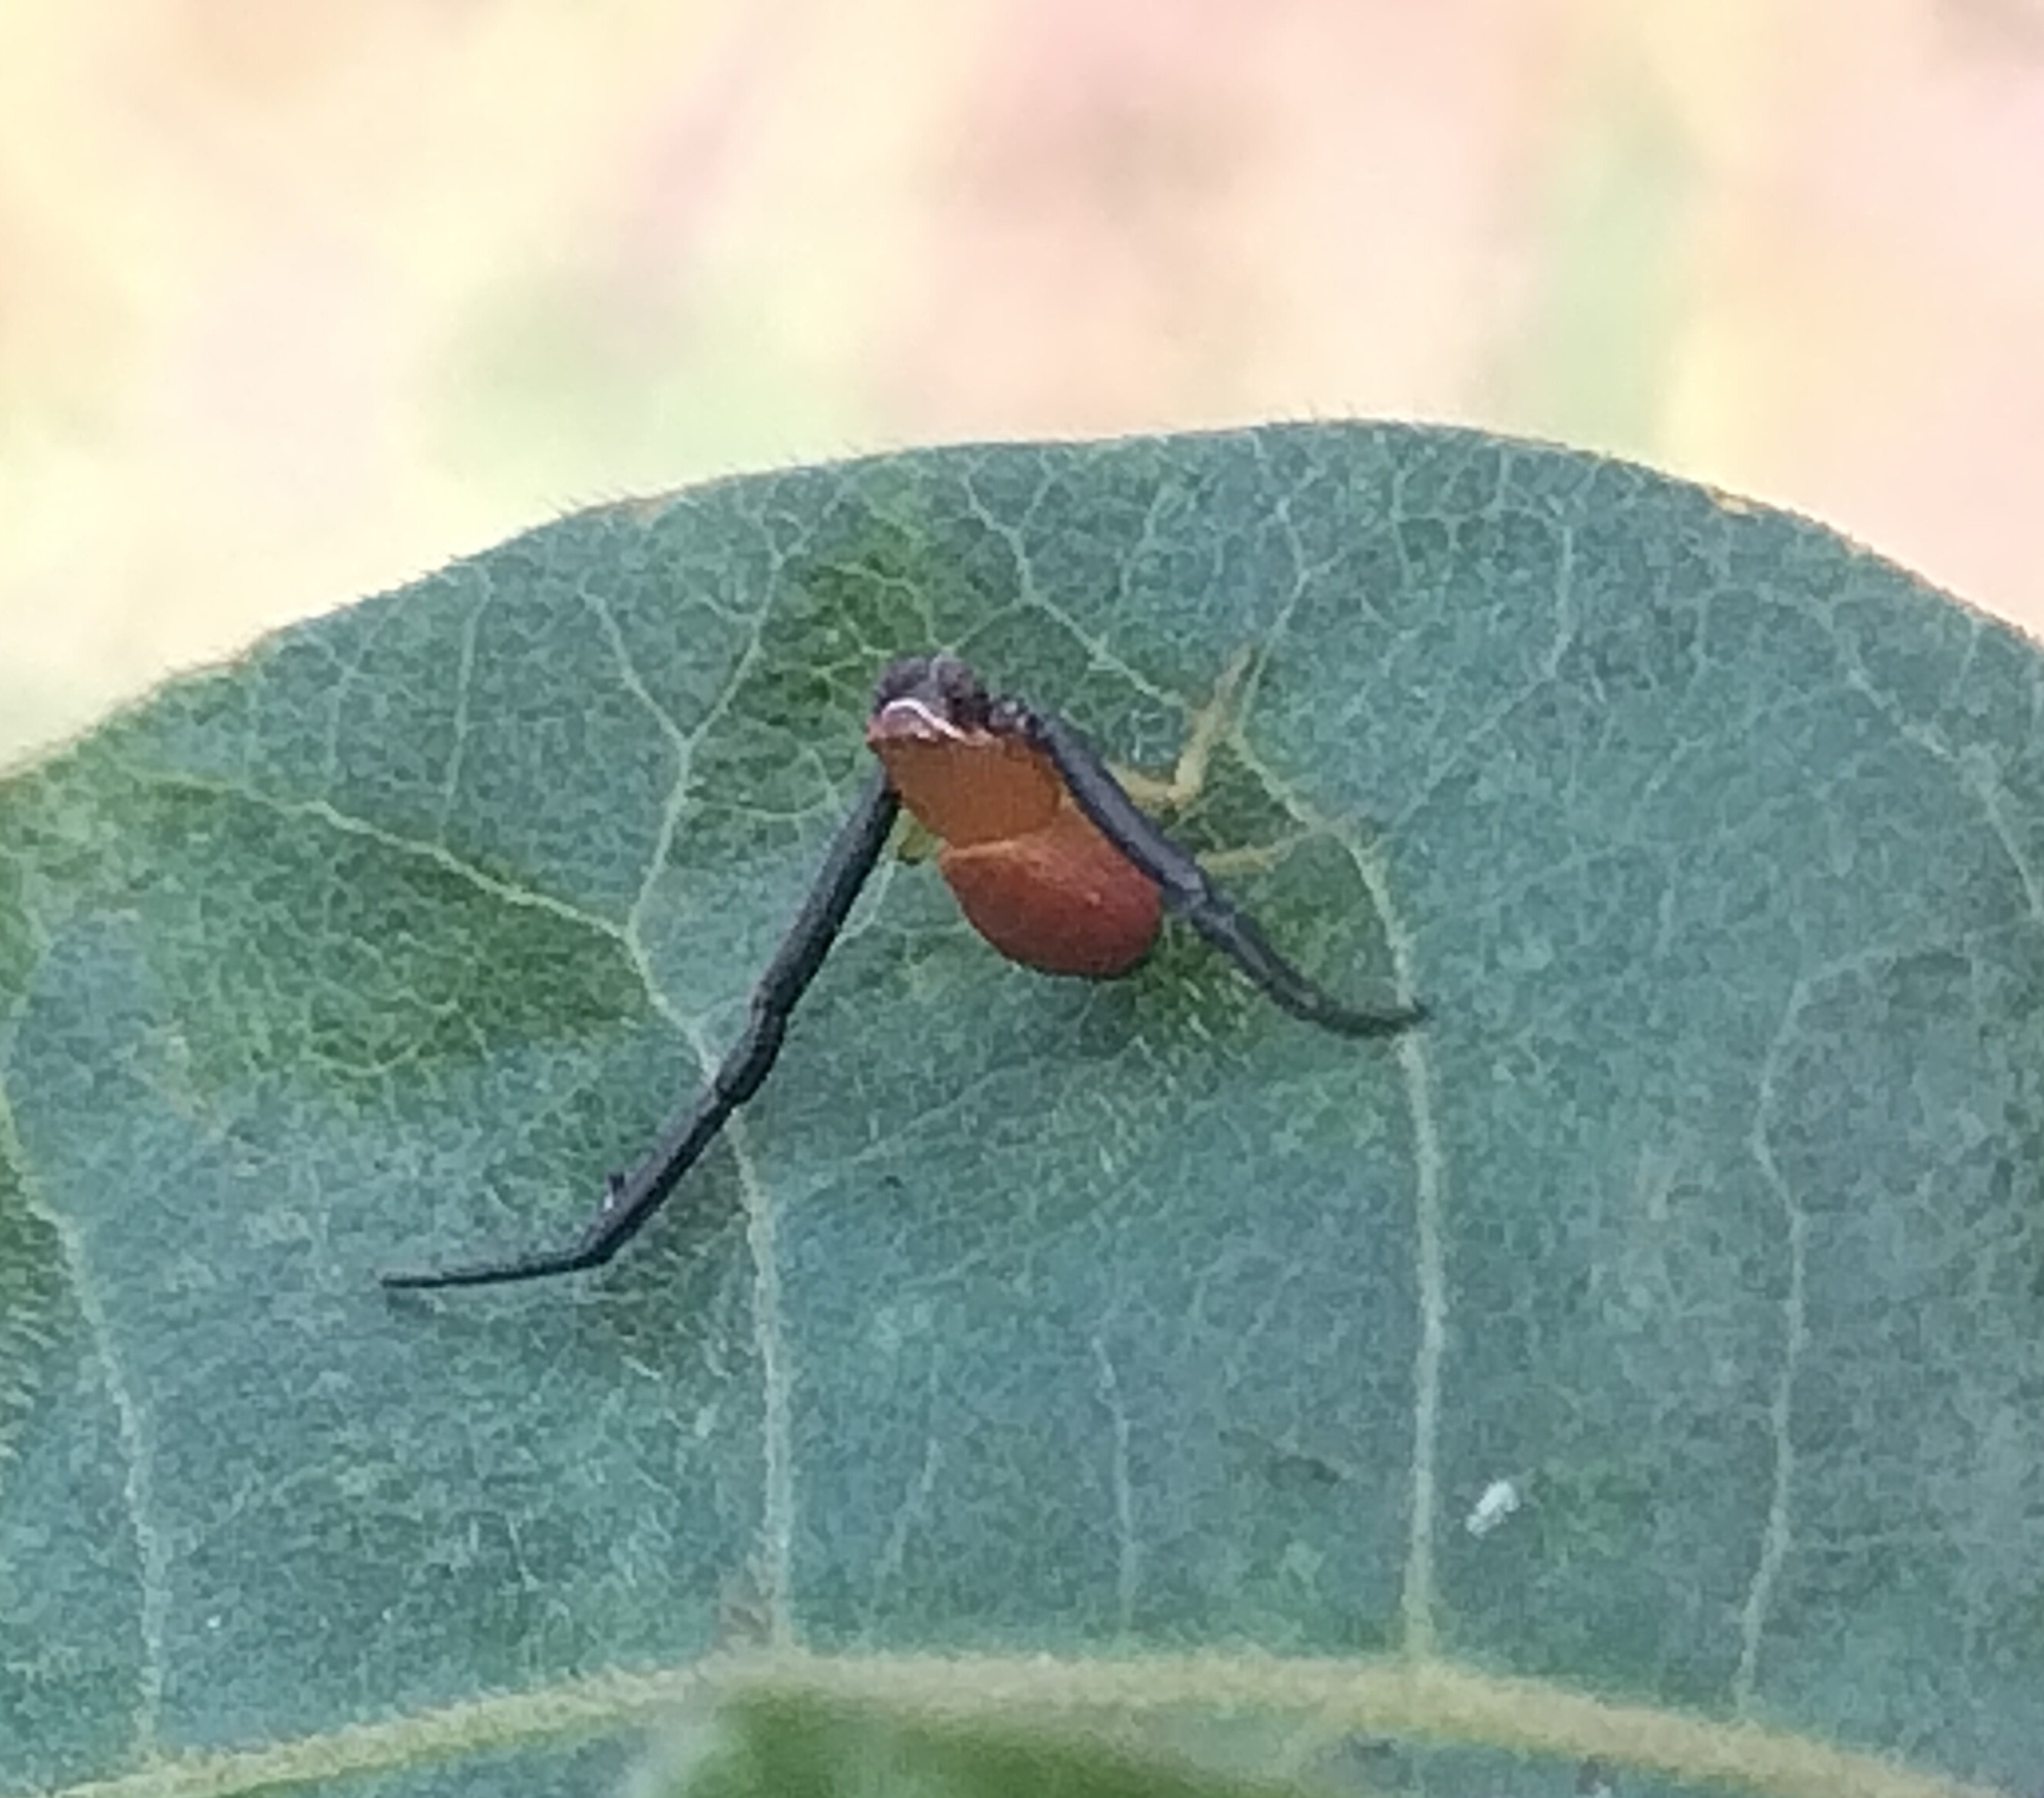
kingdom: Animalia
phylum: Arthropoda
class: Arachnida
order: Araneae
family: Thomisidae
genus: Misumenoides
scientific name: Misumenoides formosipes
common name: White-banded crab spider
